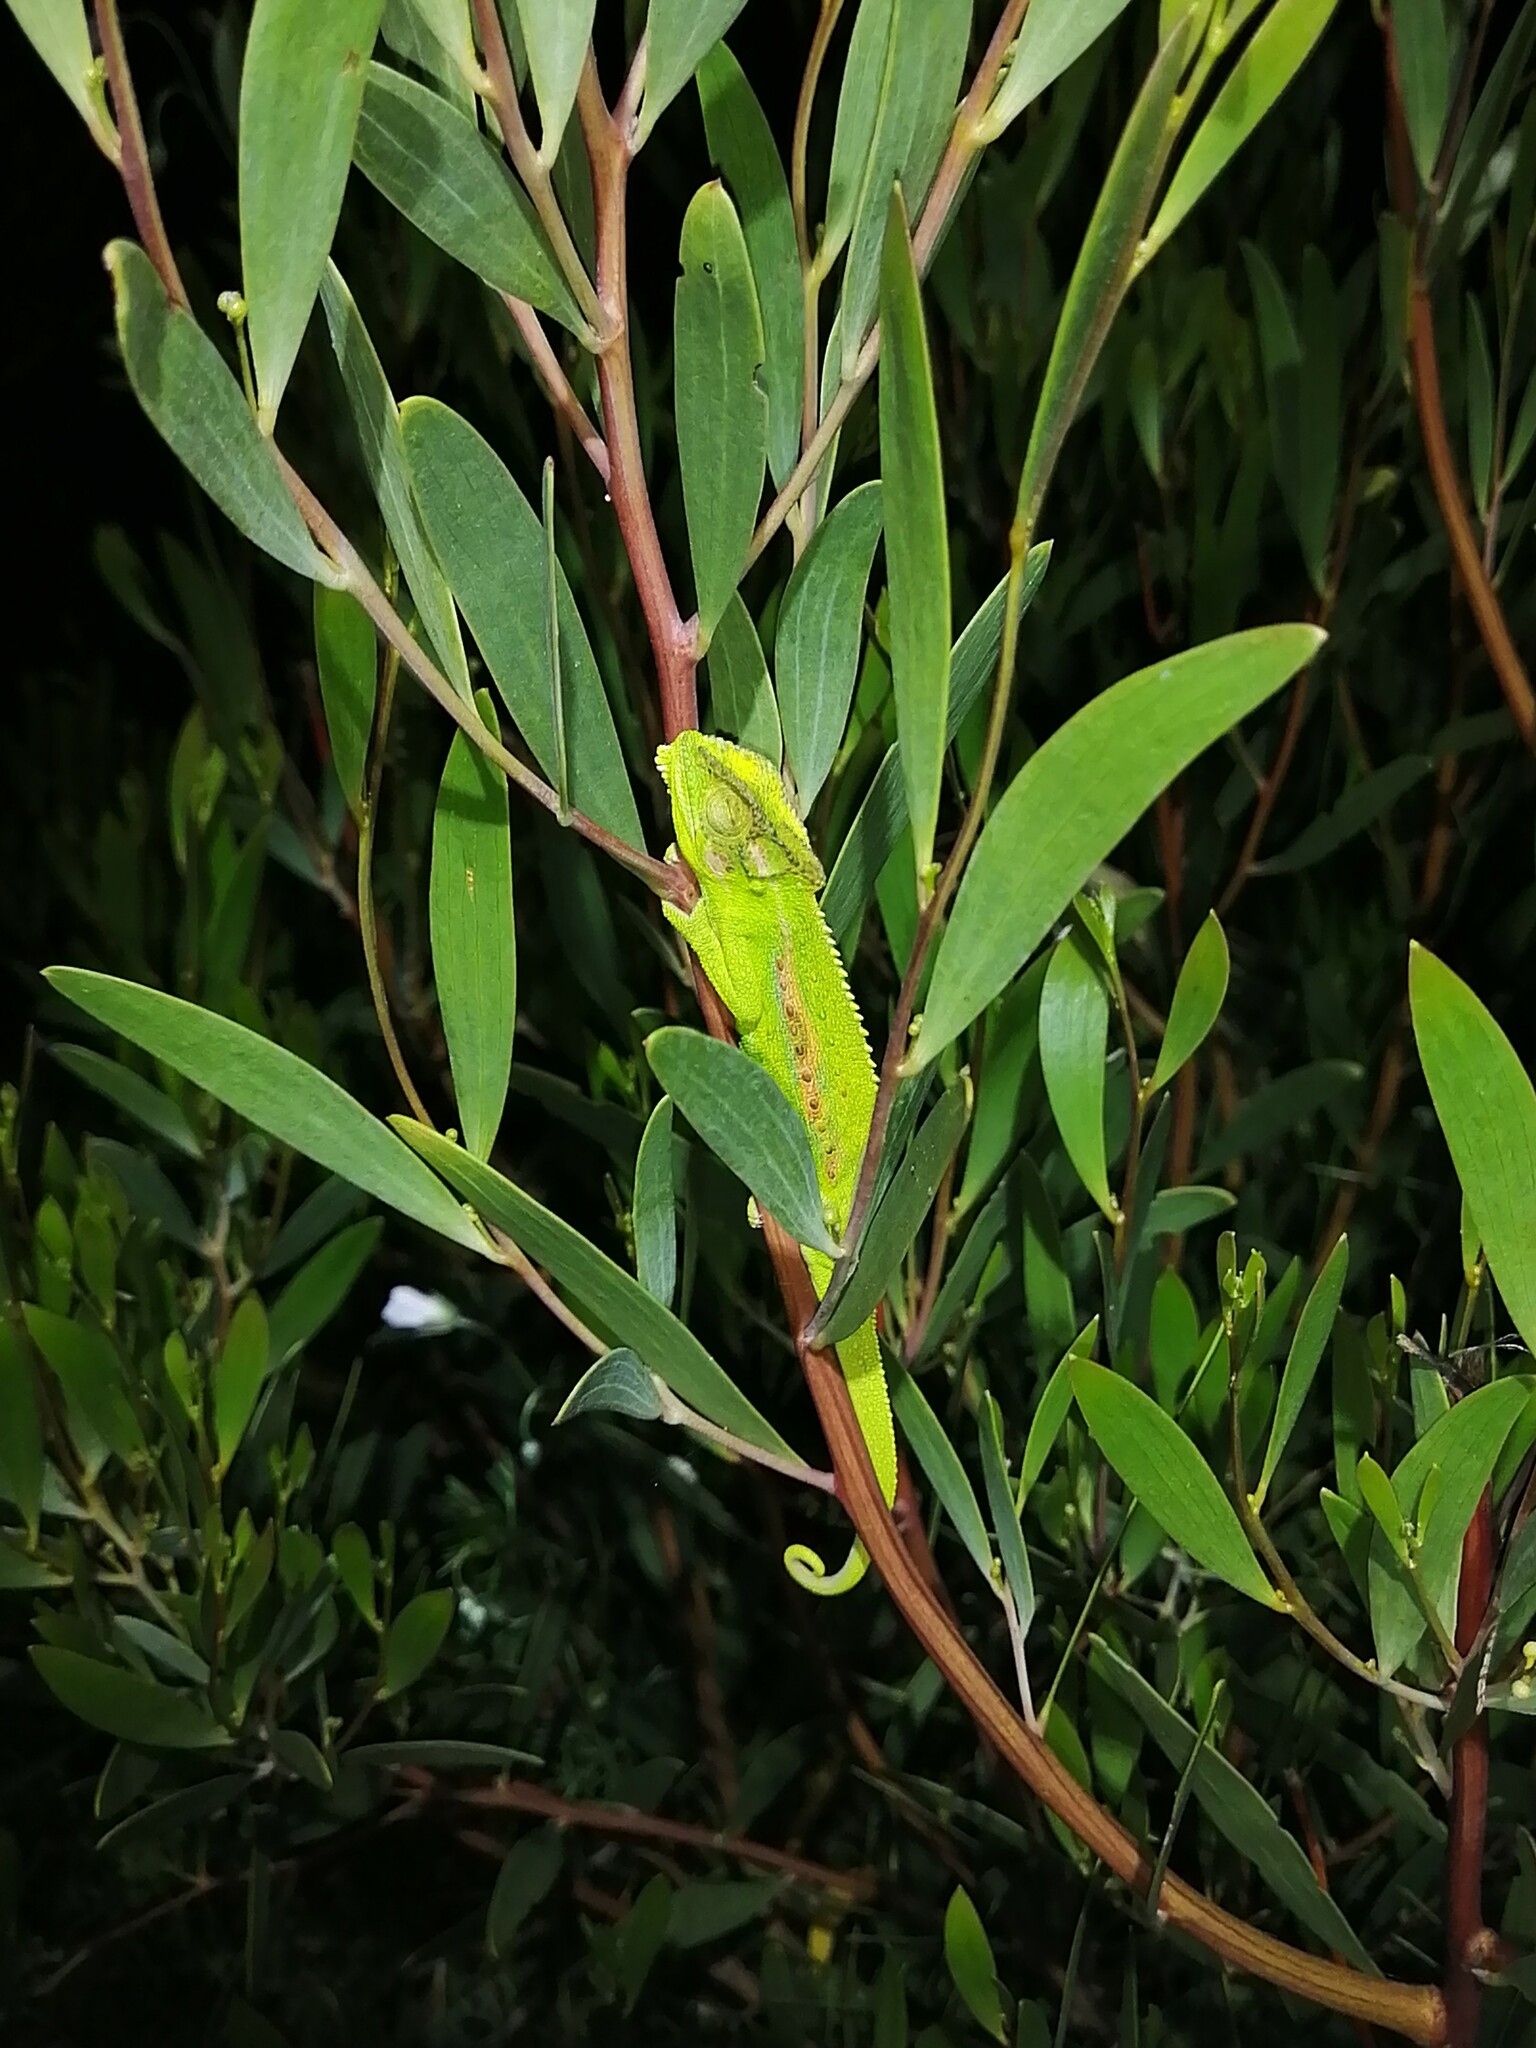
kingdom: Animalia
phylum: Chordata
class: Squamata
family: Chamaeleonidae
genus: Bradypodion
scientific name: Bradypodion pumilum
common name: Cape dwarf chameleon
